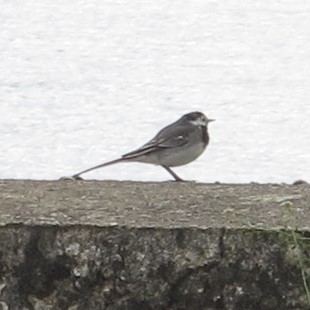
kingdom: Animalia
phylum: Chordata
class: Aves
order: Passeriformes
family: Motacillidae
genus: Motacilla
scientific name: Motacilla alba
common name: White wagtail
